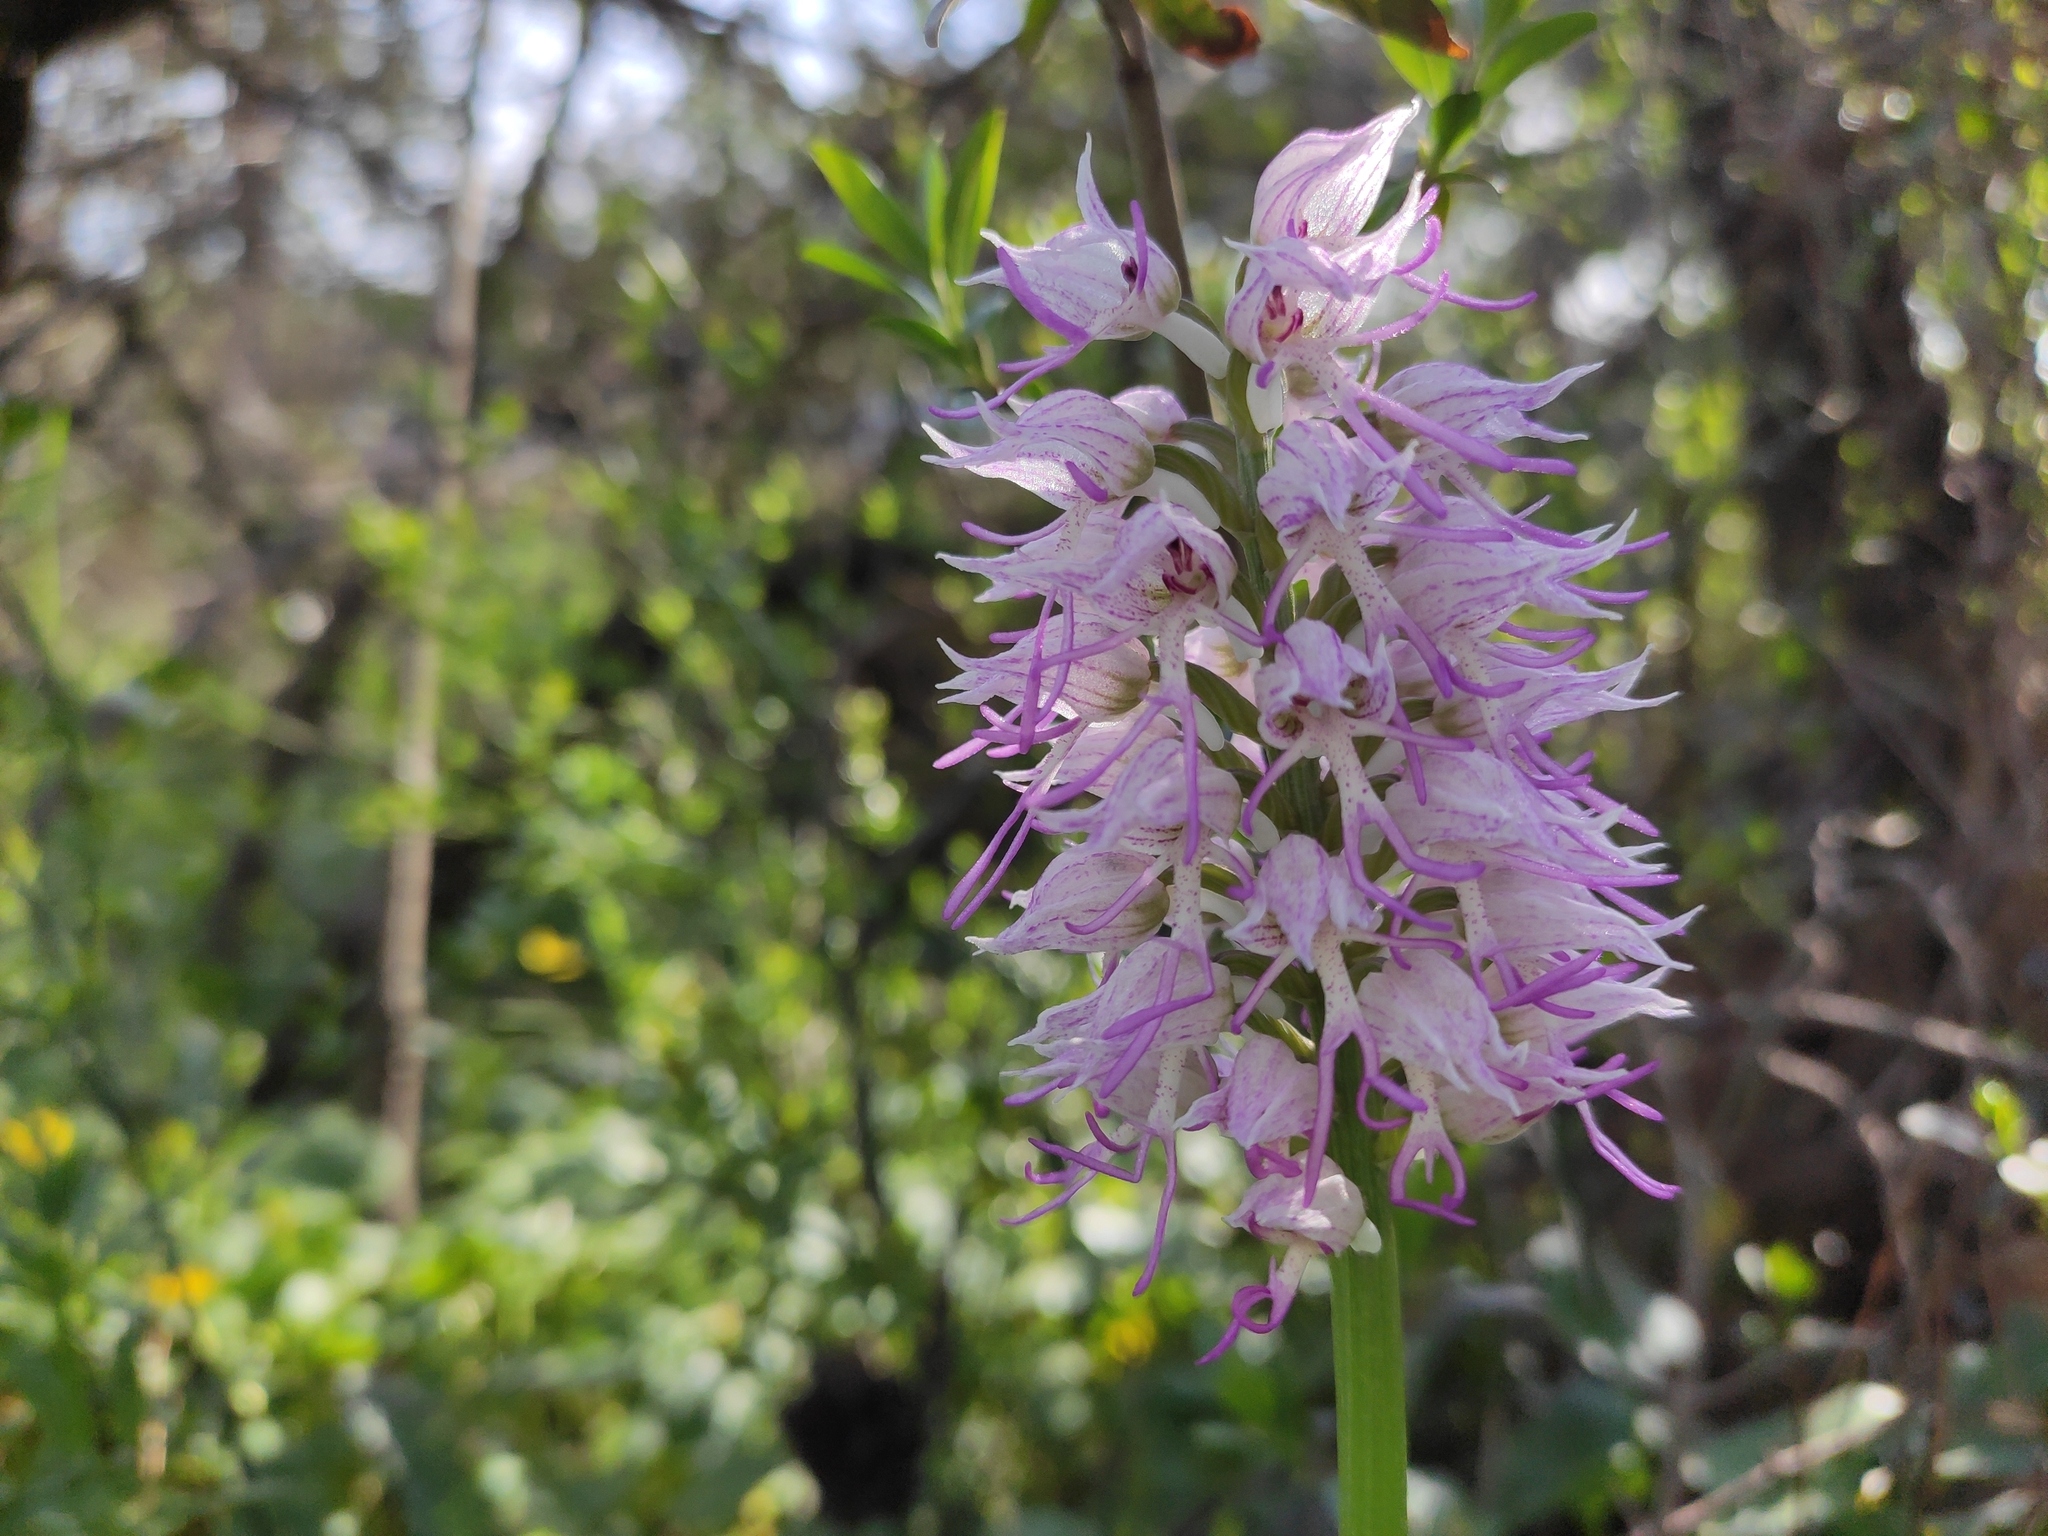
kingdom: Plantae
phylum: Tracheophyta
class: Liliopsida
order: Asparagales
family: Orchidaceae
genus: Orchis
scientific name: Orchis simia
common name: Monkey orchid
